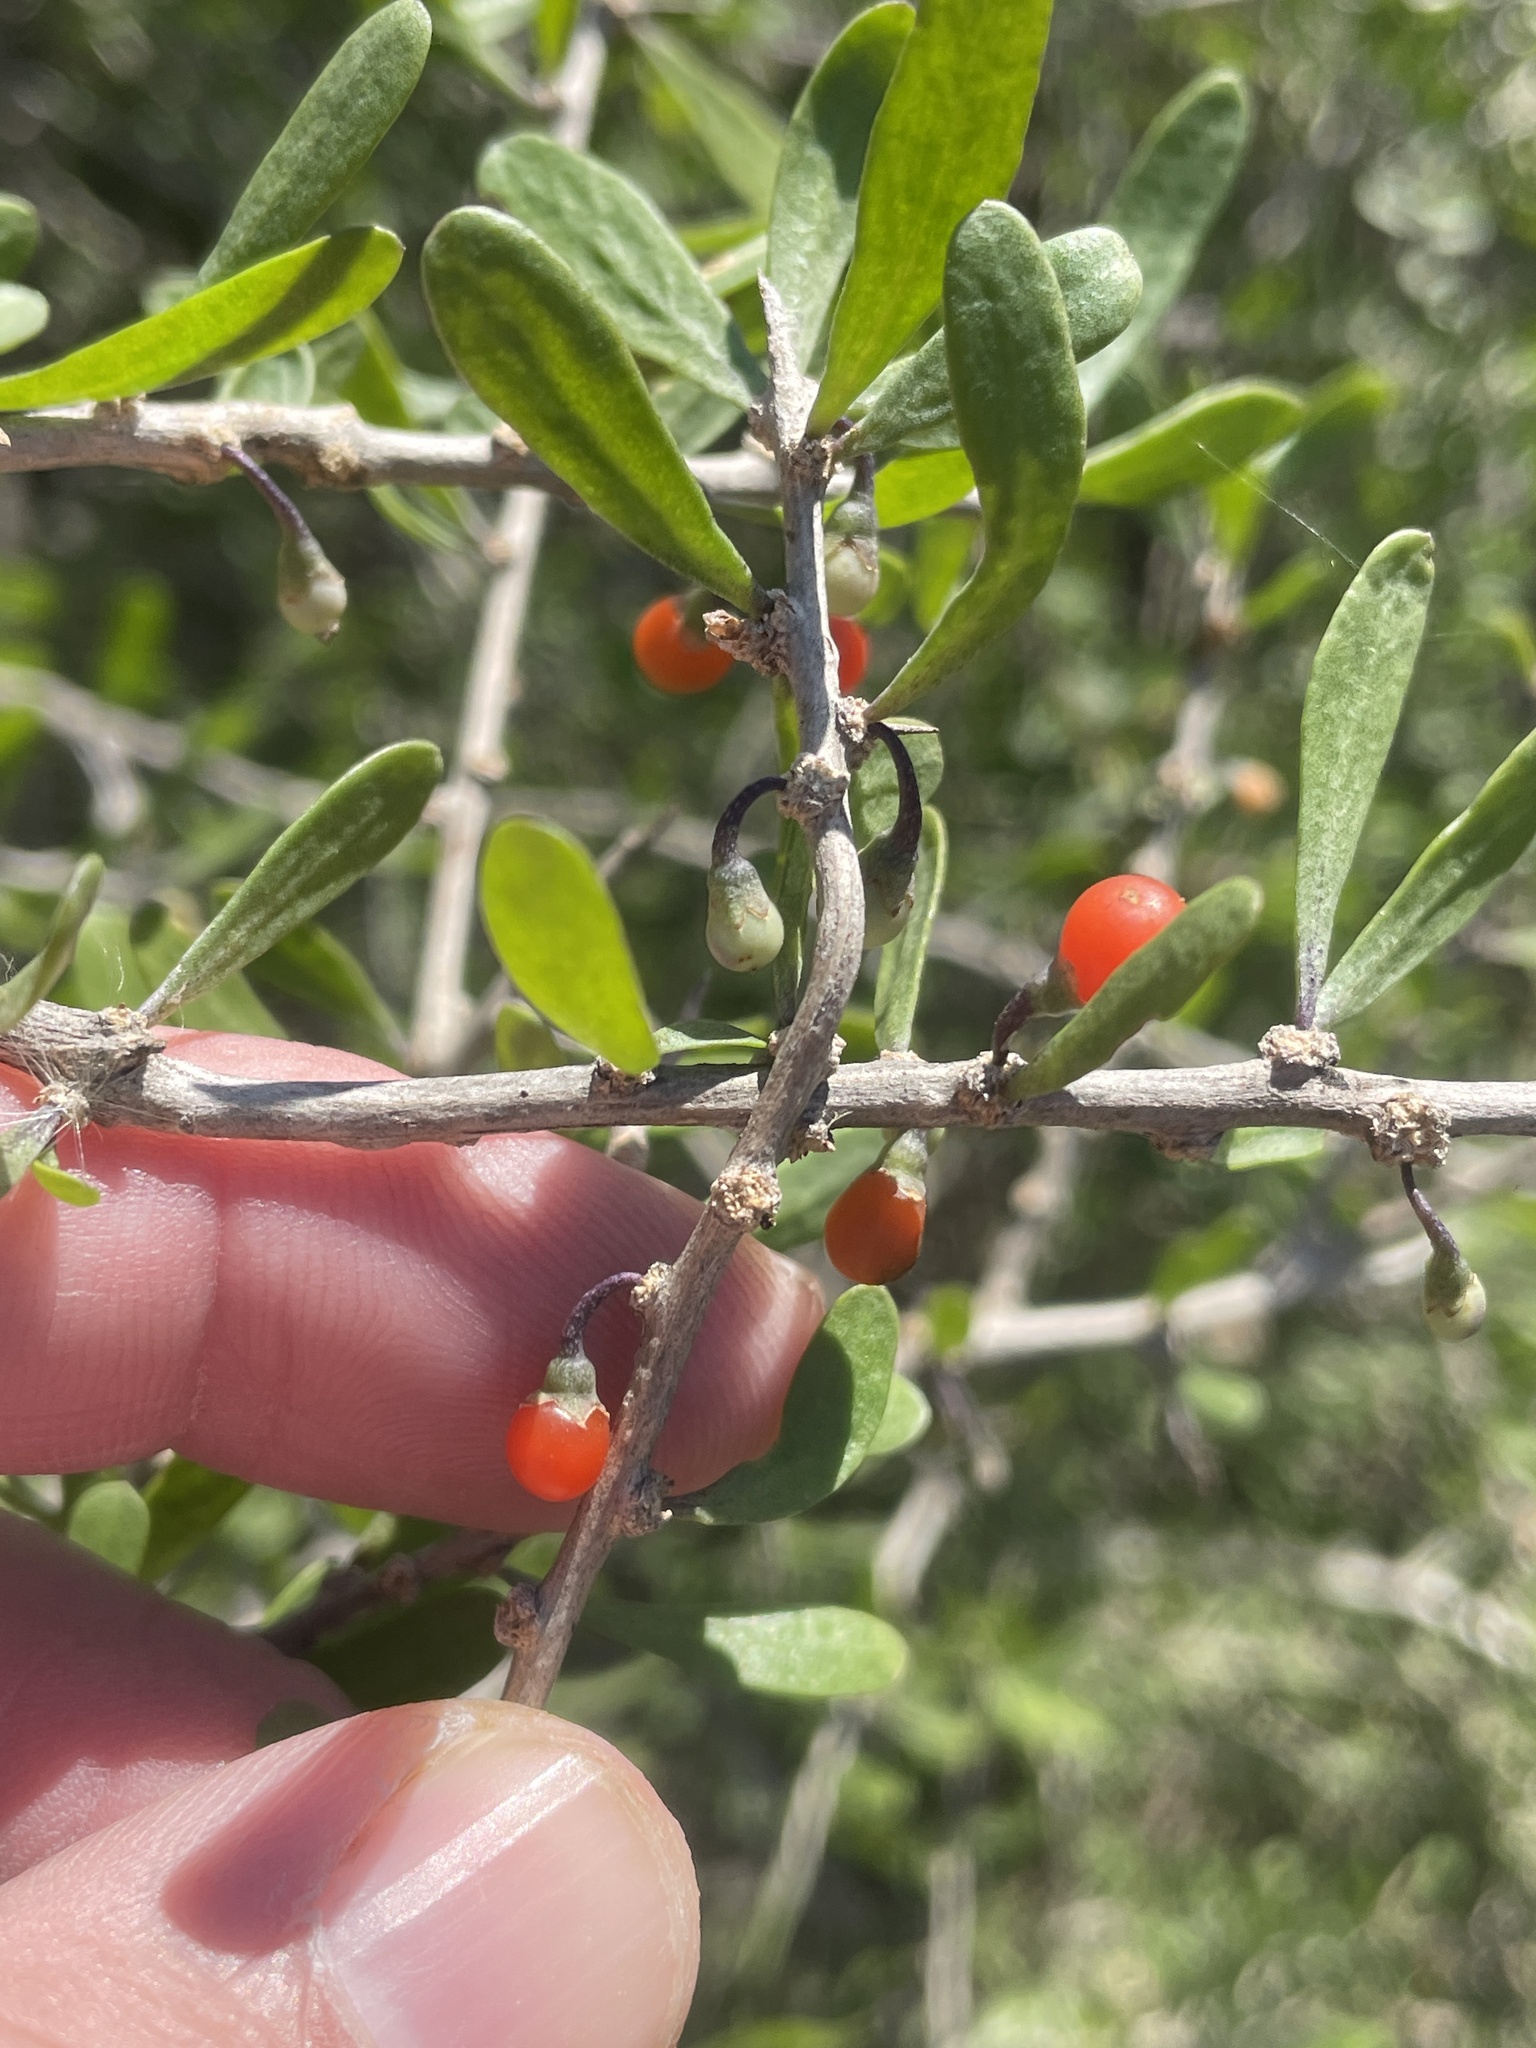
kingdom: Plantae
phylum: Tracheophyta
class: Magnoliopsida
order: Solanales
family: Solanaceae
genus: Lycium
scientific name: Lycium berlandieri
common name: Berlandier wolfberry
